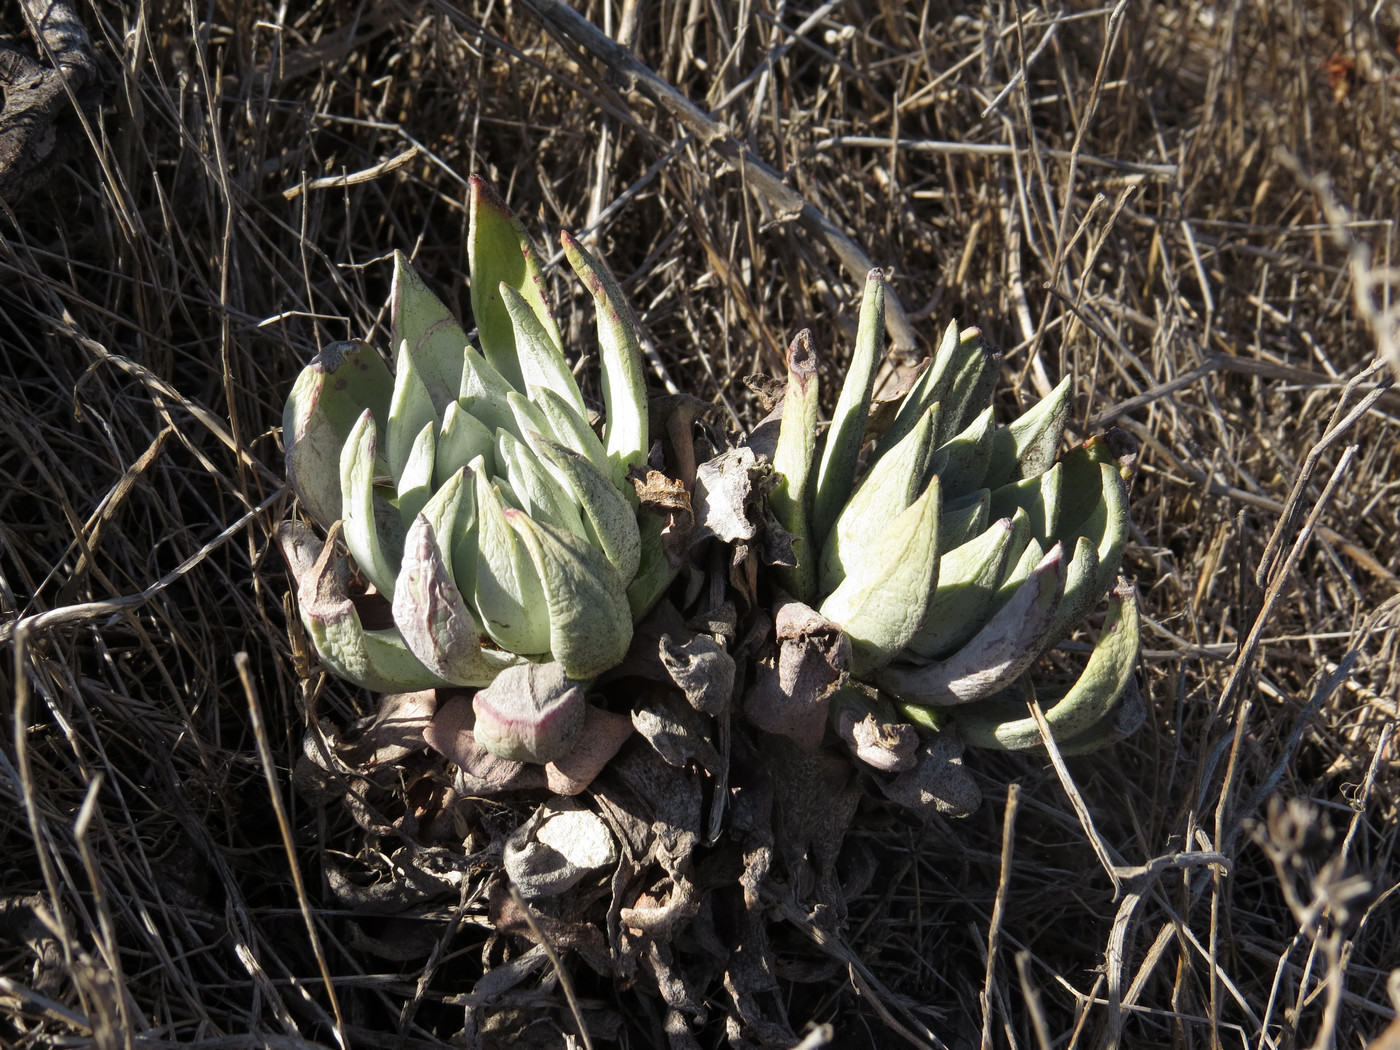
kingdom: Plantae
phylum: Tracheophyta
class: Magnoliopsida
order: Saxifragales
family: Crassulaceae
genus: Dudleya
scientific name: Dudleya greenei
